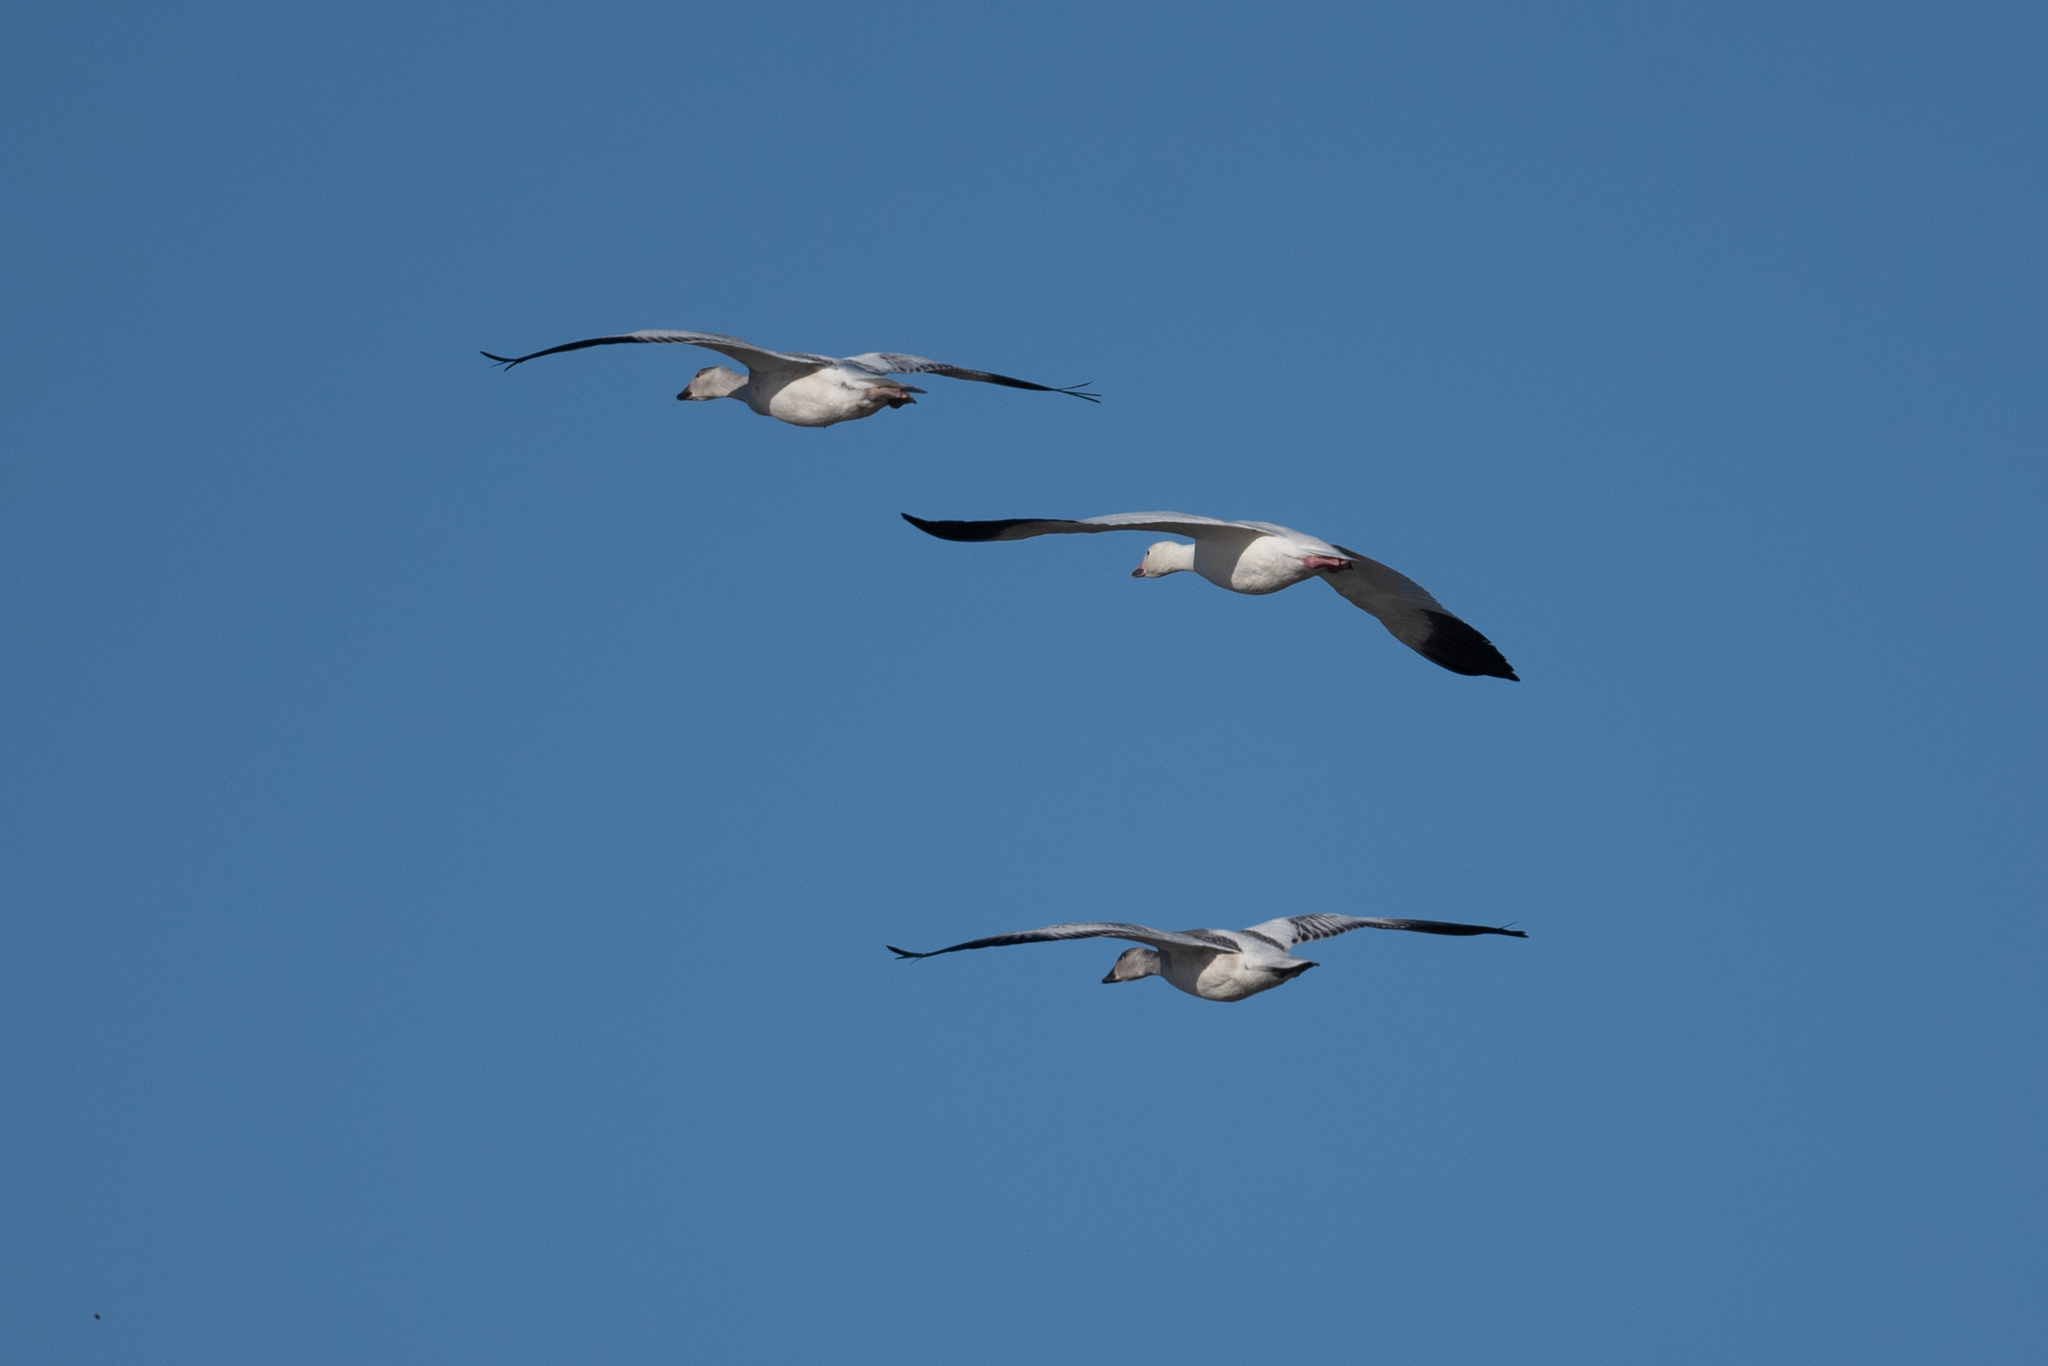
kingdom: Animalia
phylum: Chordata
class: Aves
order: Anseriformes
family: Anatidae
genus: Anser
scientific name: Anser caerulescens
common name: Snow goose
